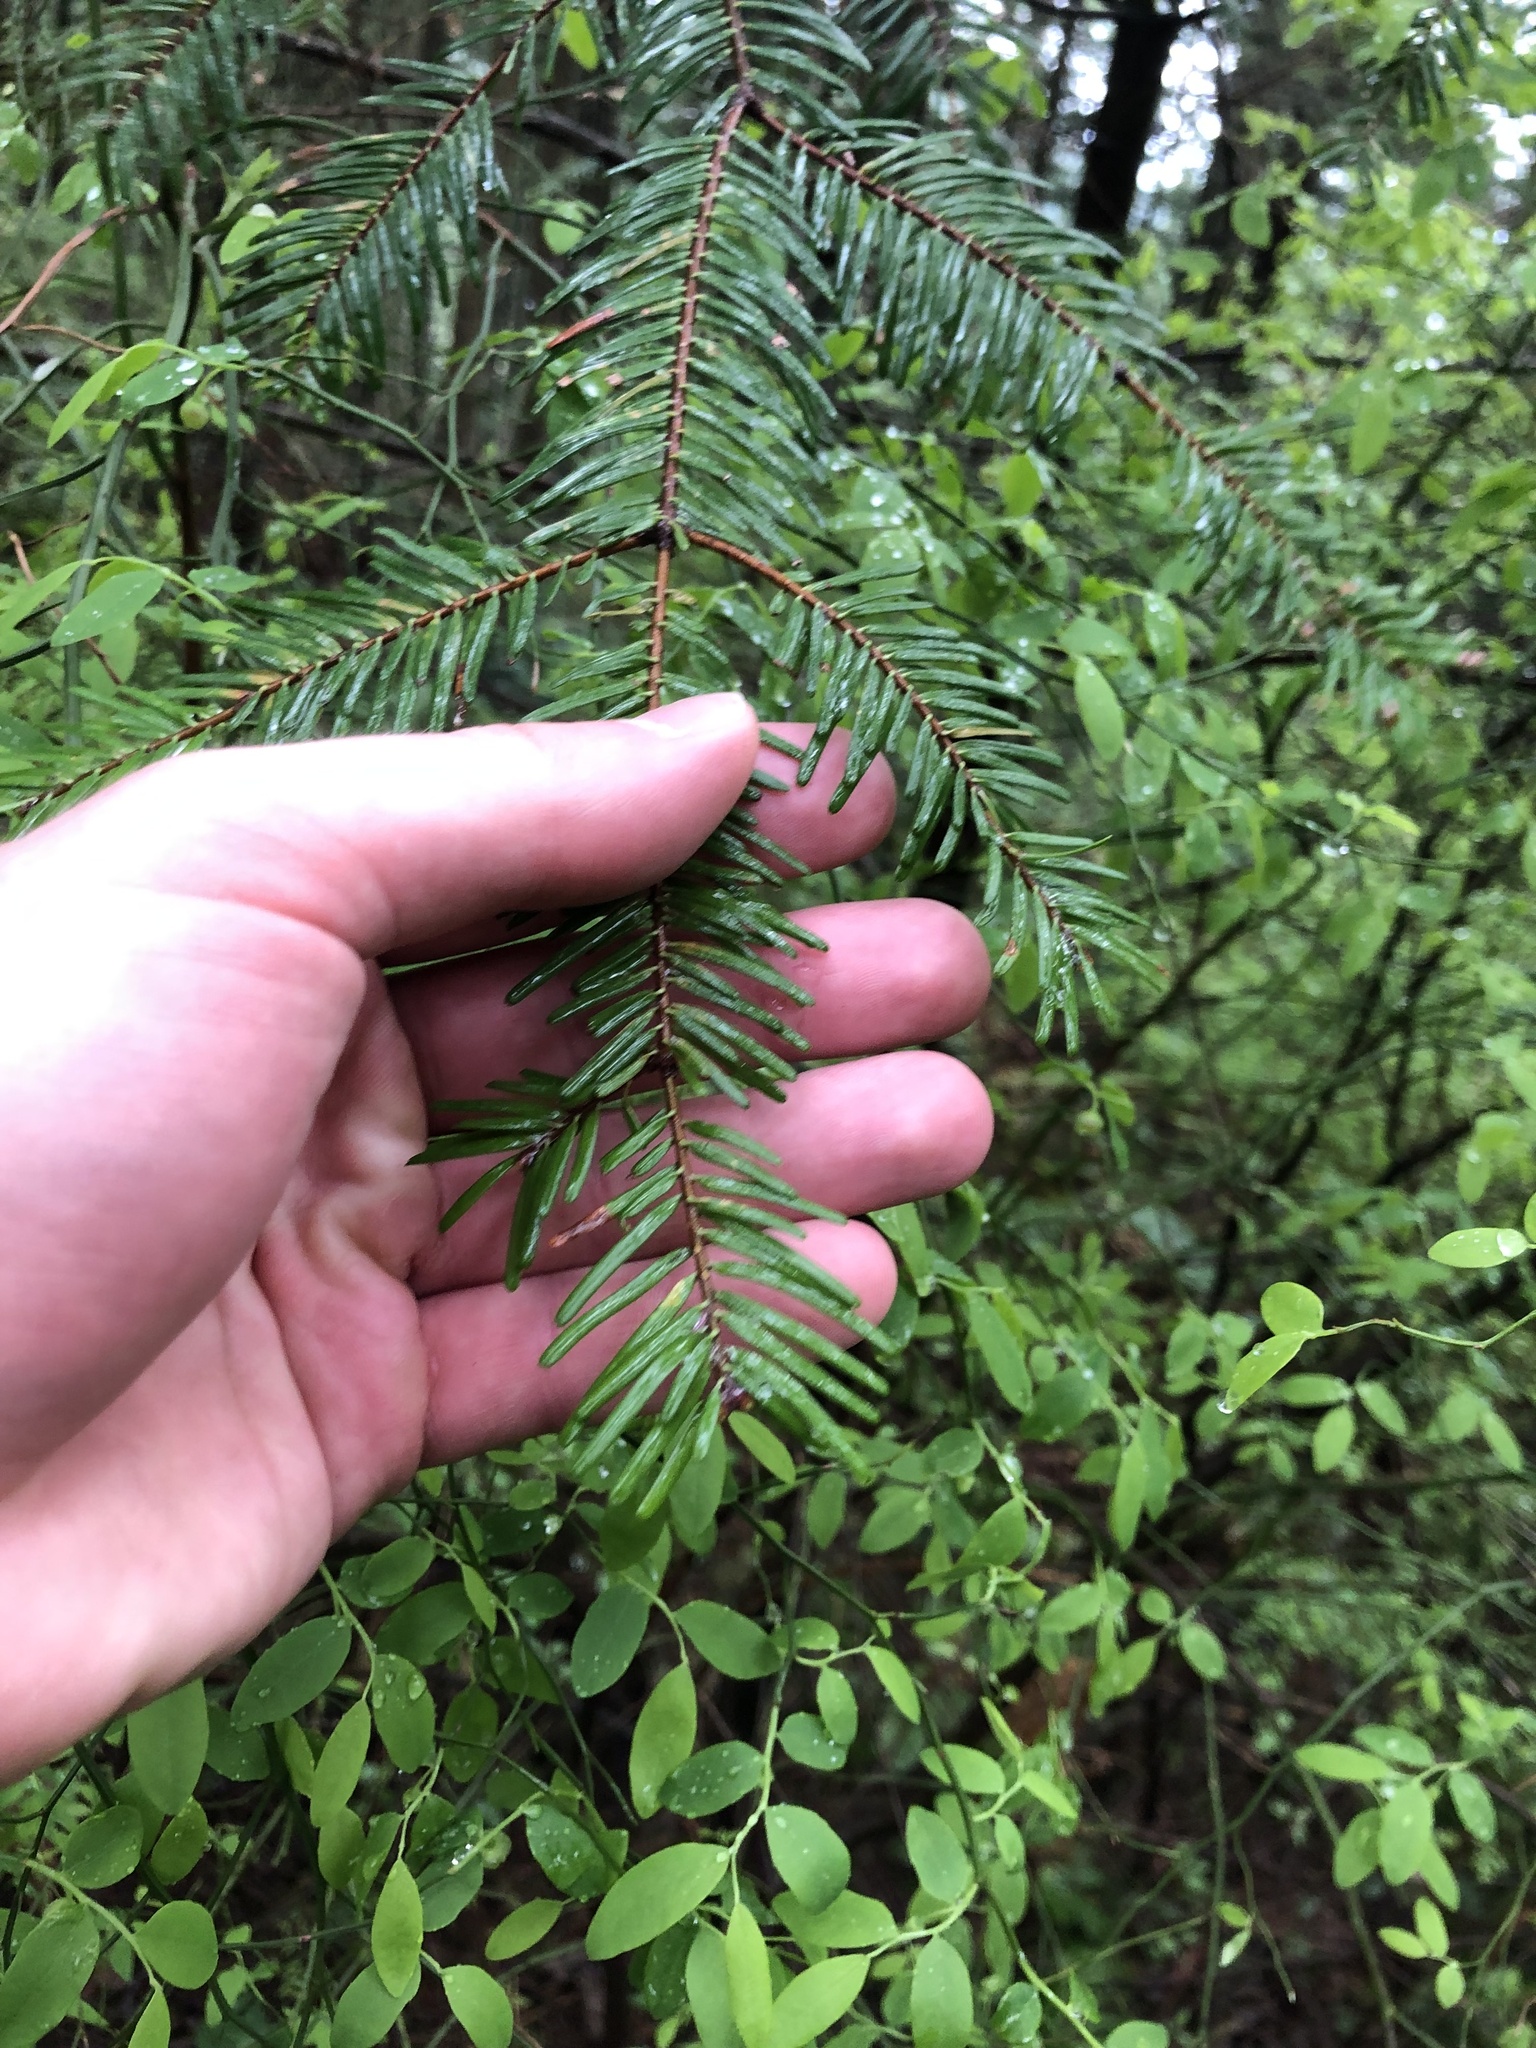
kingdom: Plantae
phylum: Tracheophyta
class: Pinopsida
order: Pinales
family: Pinaceae
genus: Abies
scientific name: Abies grandis
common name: Giant fir
